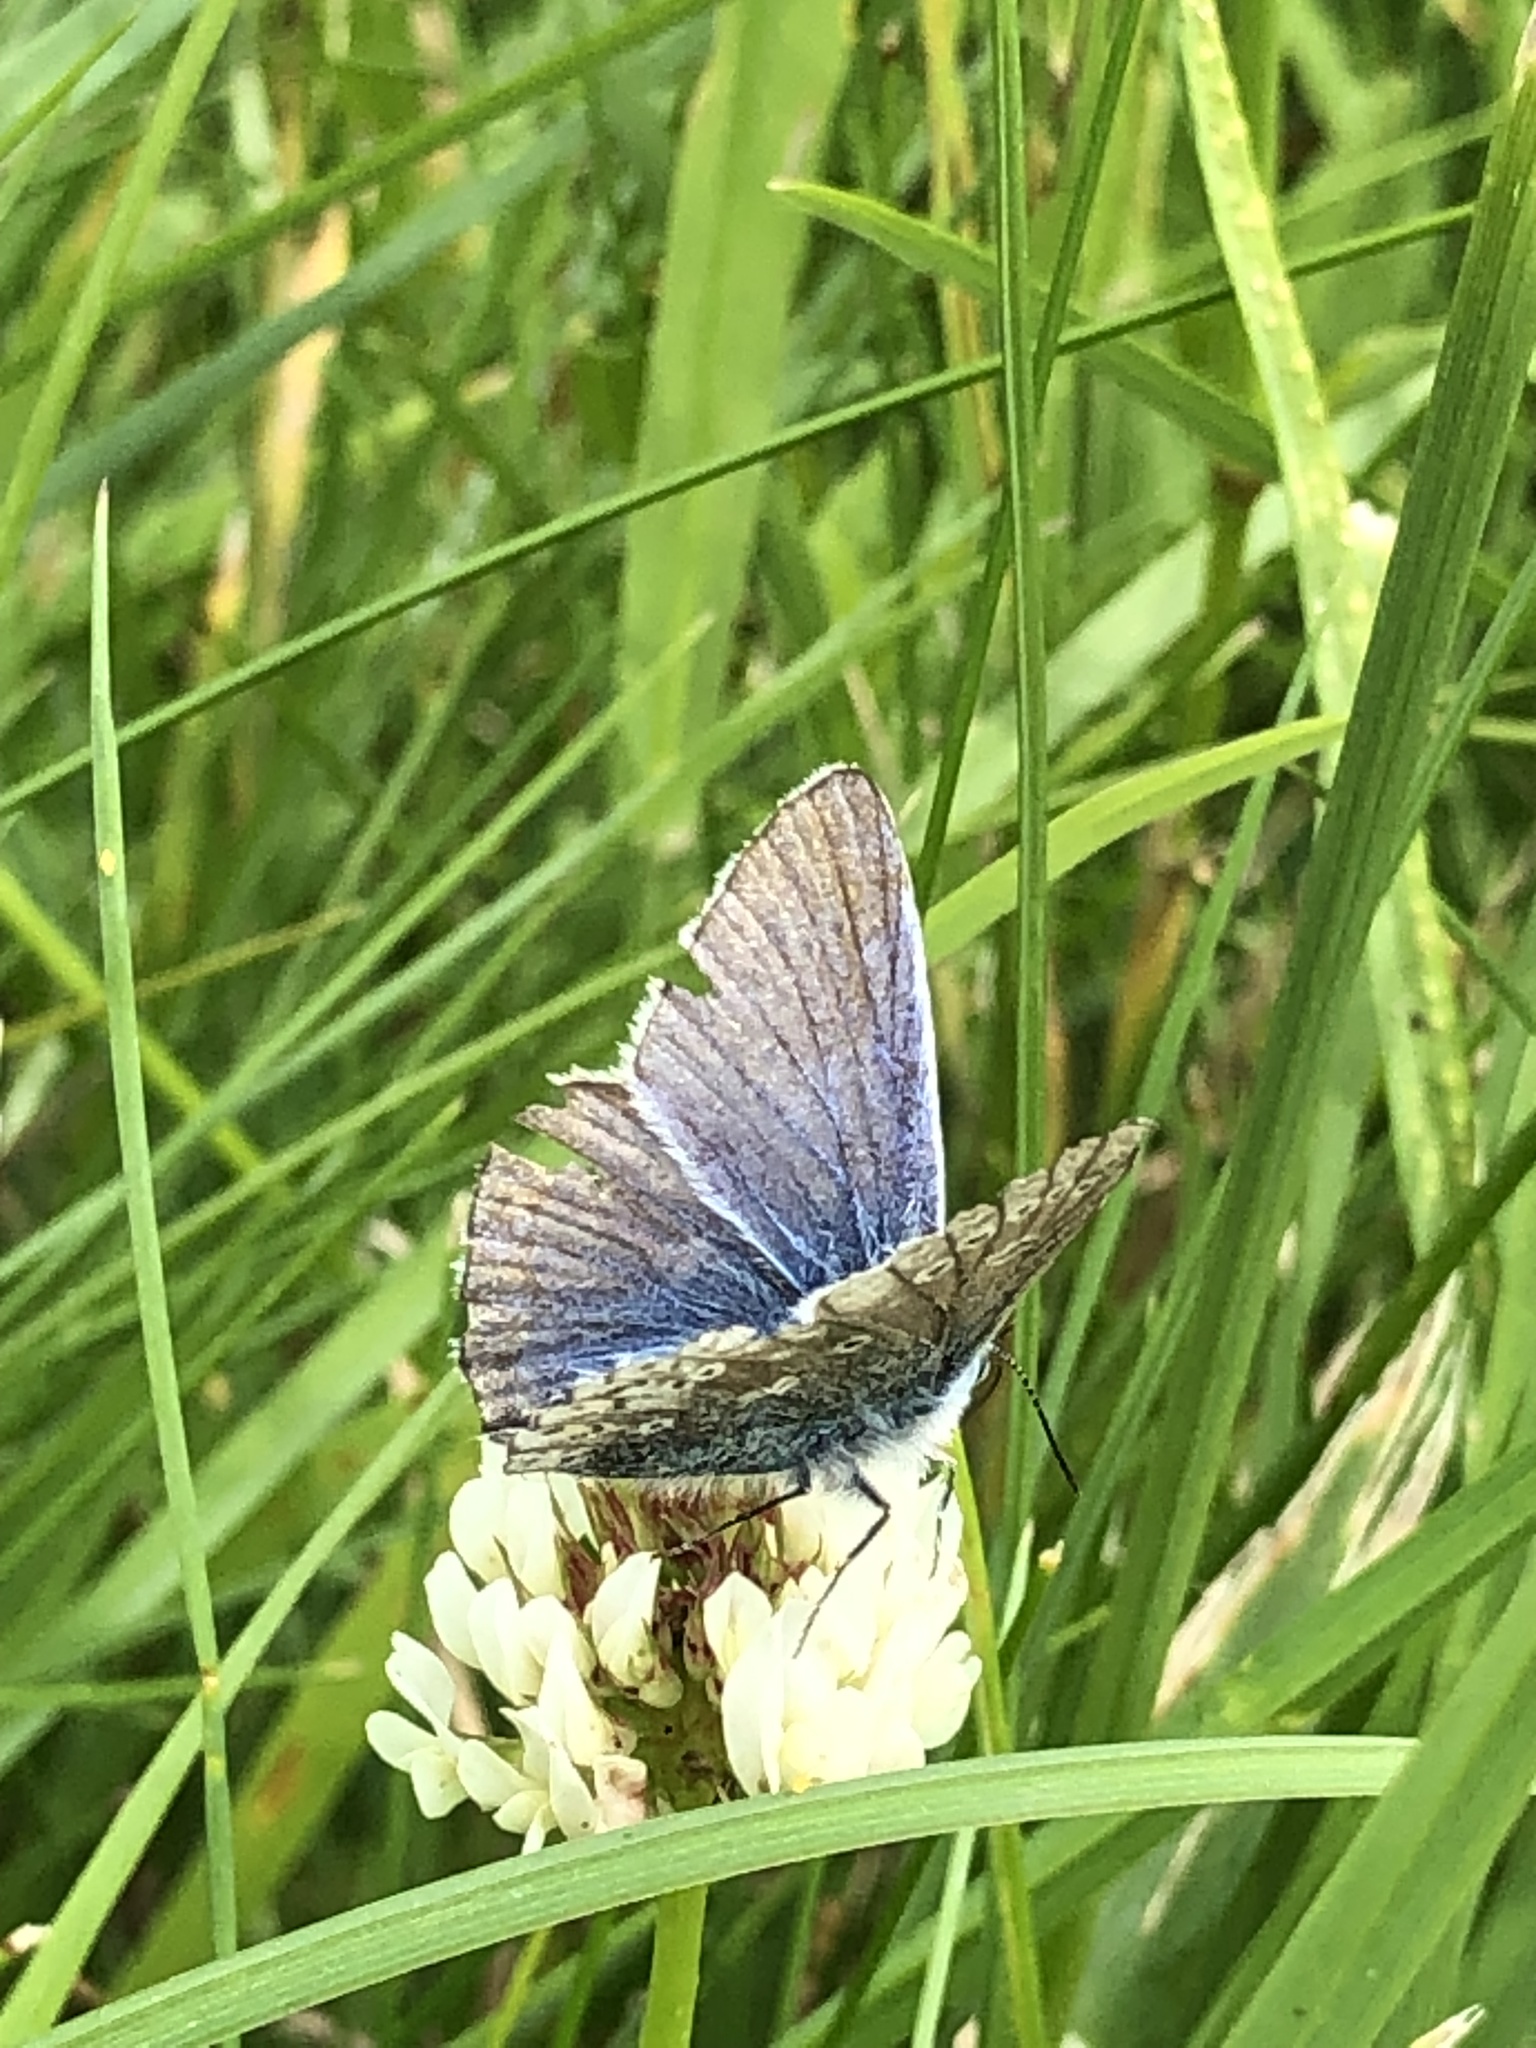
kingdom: Animalia
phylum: Arthropoda
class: Insecta
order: Lepidoptera
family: Lycaenidae
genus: Polyommatus
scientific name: Polyommatus icarus
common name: Common blue
